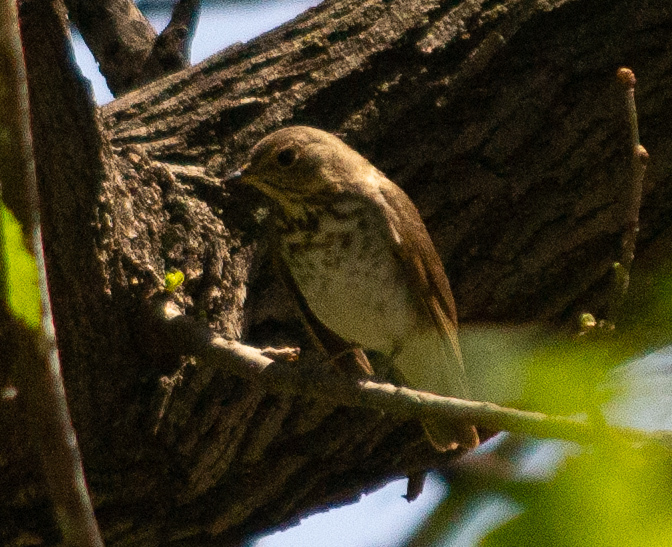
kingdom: Animalia
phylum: Chordata
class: Aves
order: Passeriformes
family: Turdidae
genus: Catharus
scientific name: Catharus ustulatus
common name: Swainson's thrush
